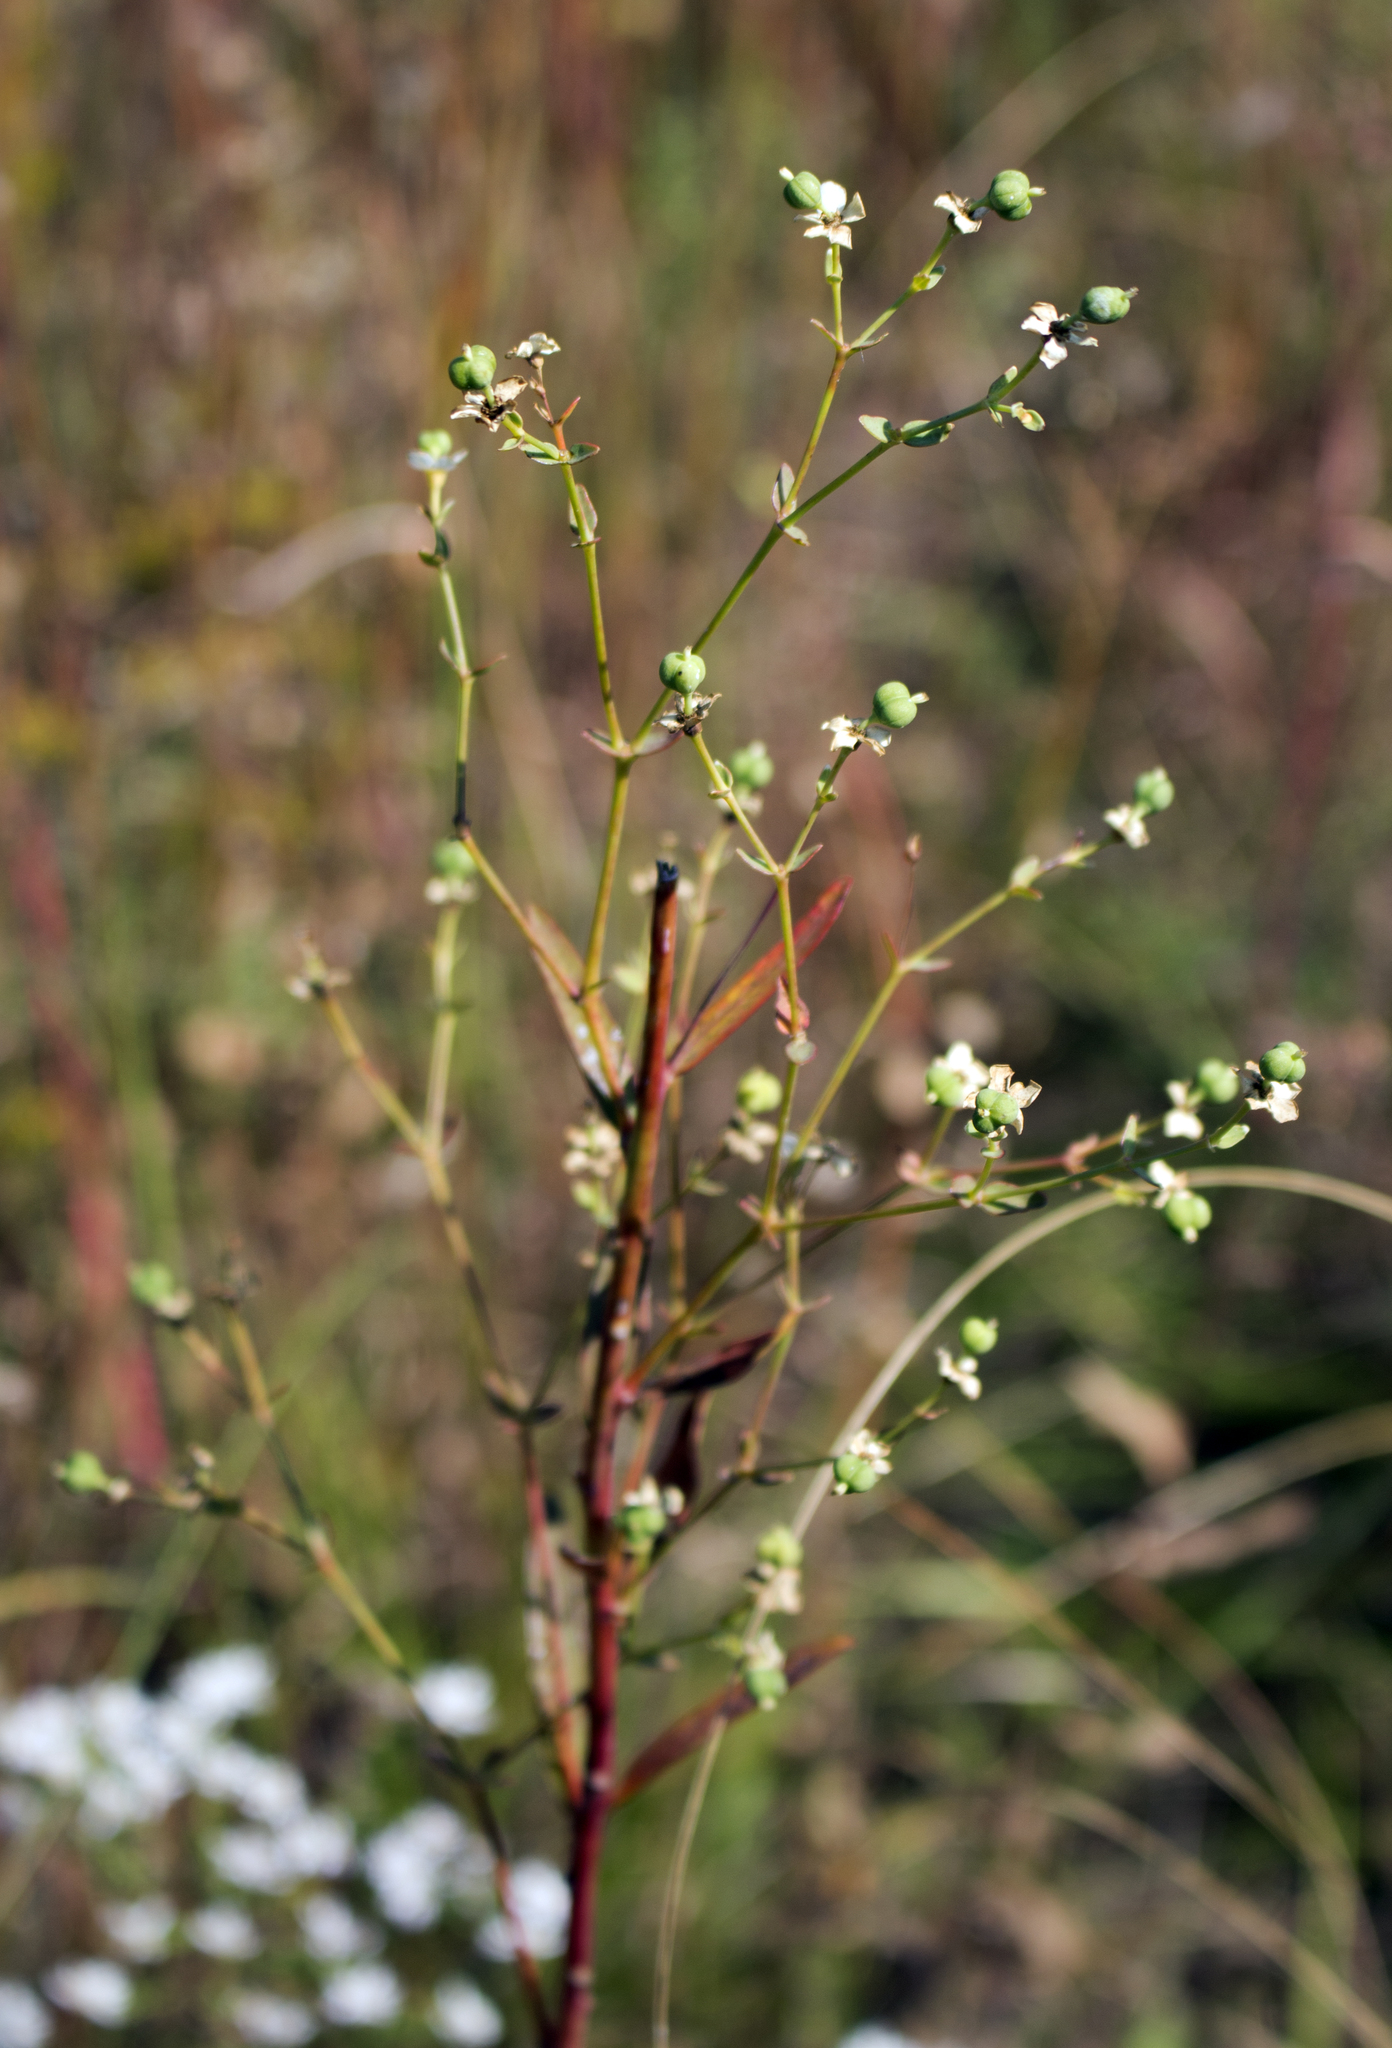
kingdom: Plantae
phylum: Tracheophyta
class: Magnoliopsida
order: Malpighiales
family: Euphorbiaceae
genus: Euphorbia
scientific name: Euphorbia corollata
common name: Flowering spurge
